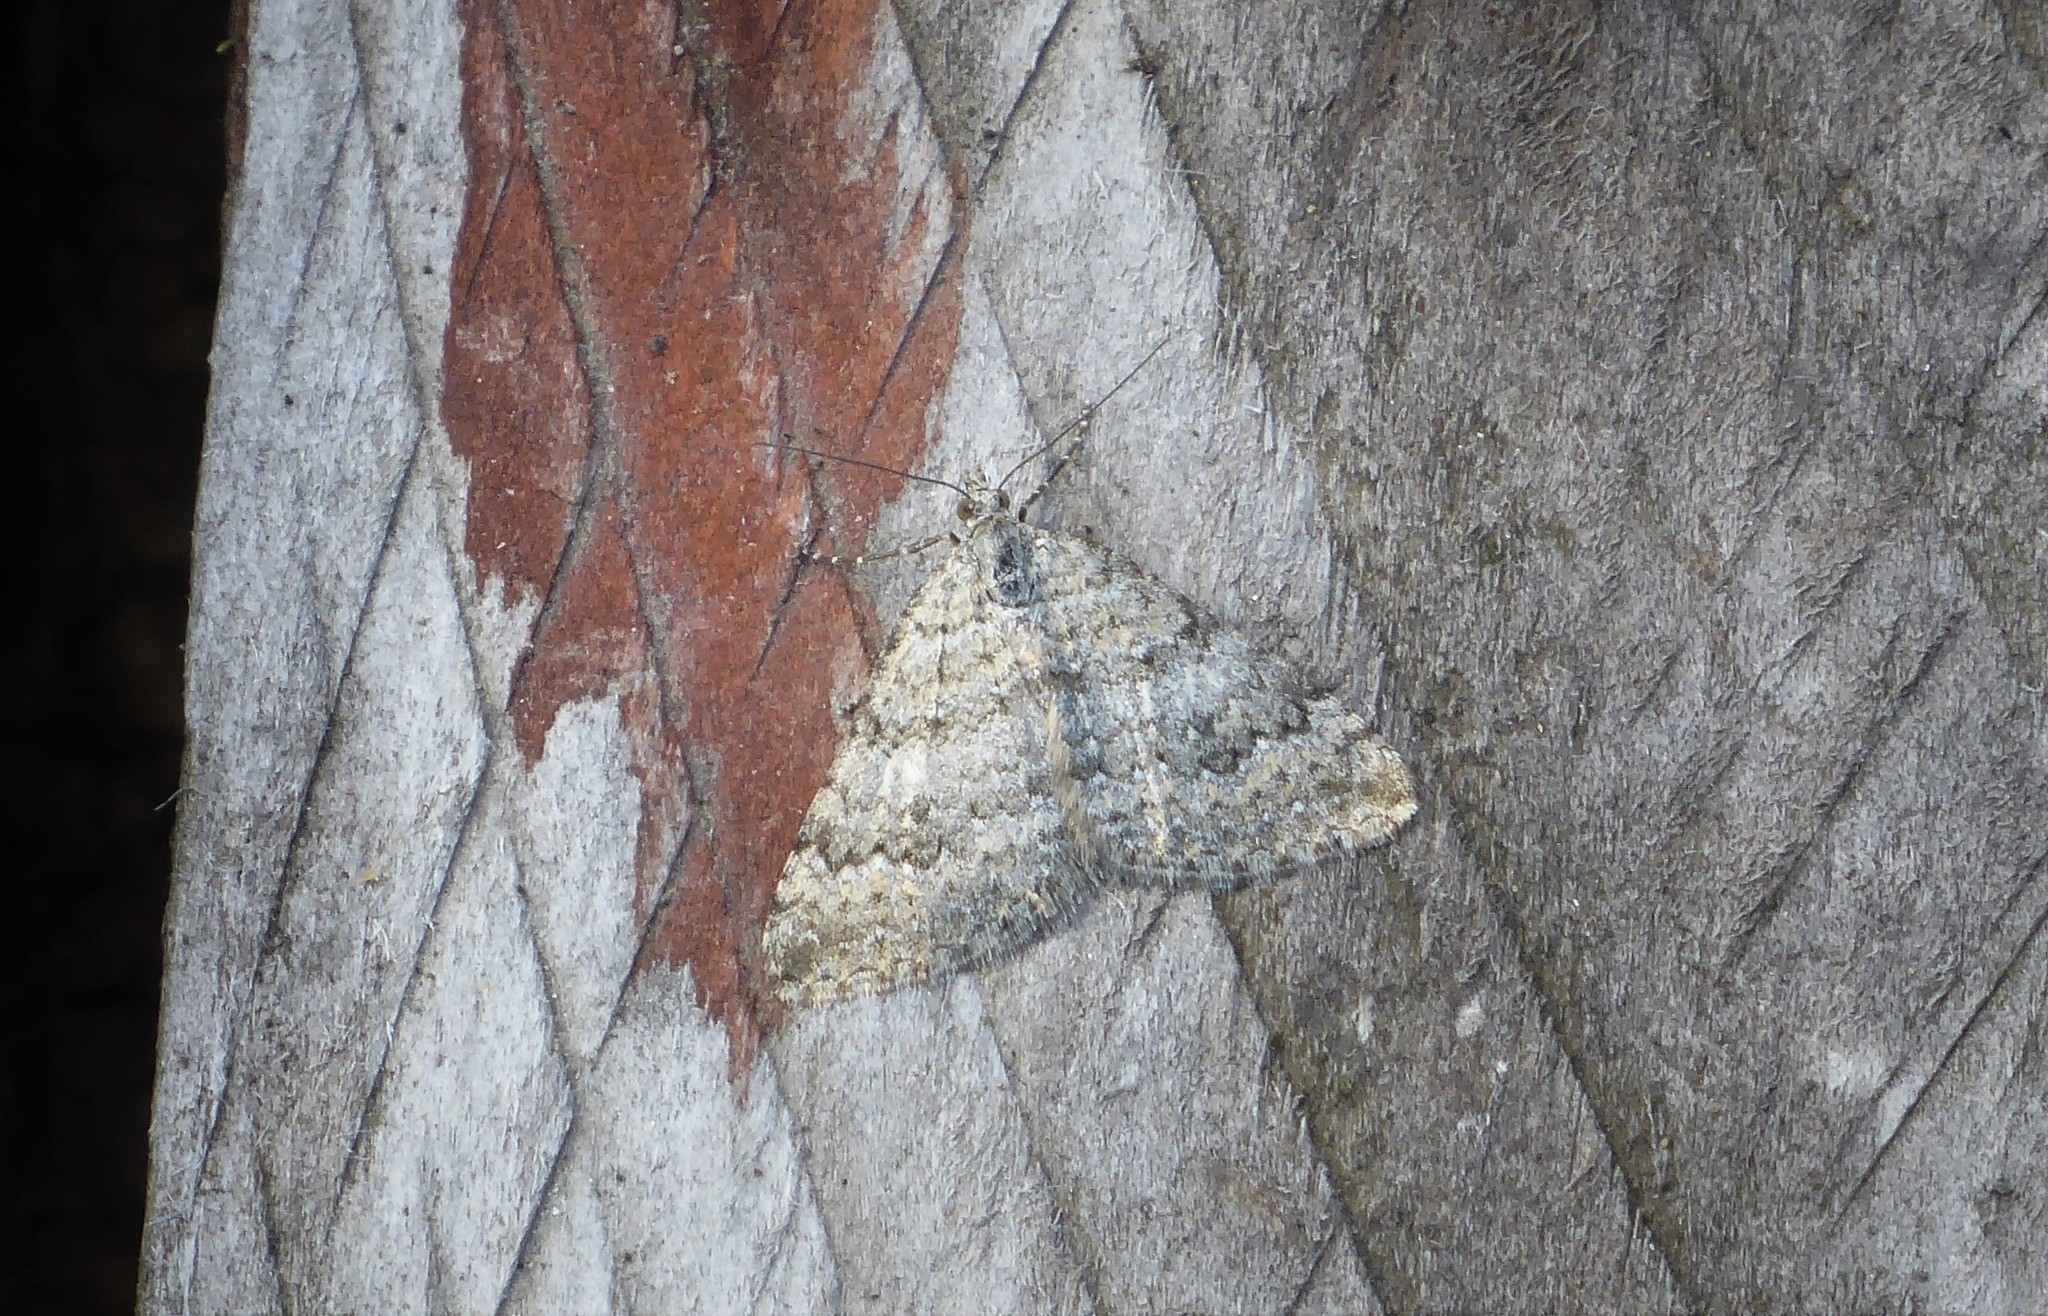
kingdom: Animalia
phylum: Arthropoda
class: Insecta
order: Lepidoptera
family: Geometridae
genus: Helastia
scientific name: Helastia corcularia
